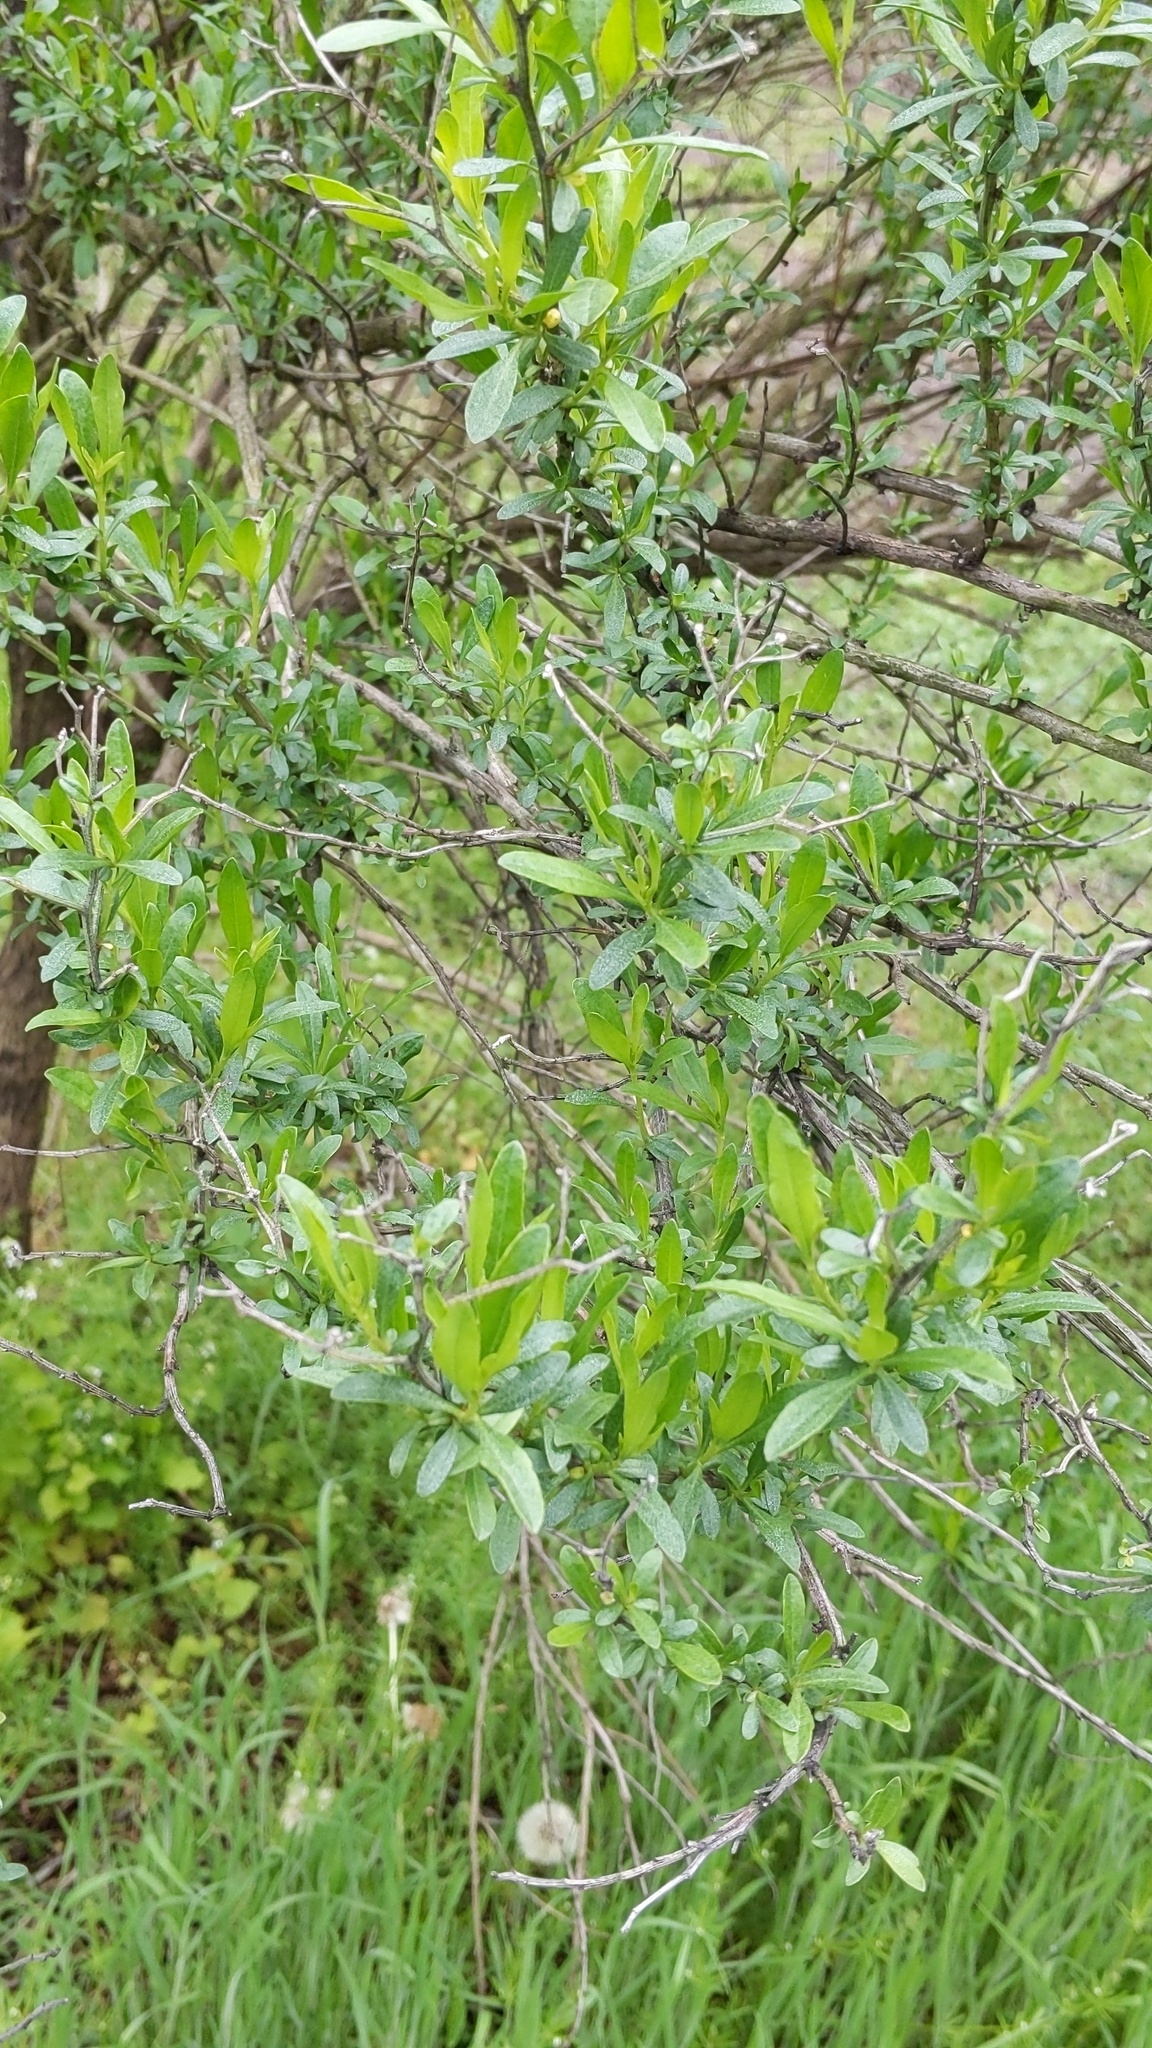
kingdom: Plantae
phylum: Tracheophyta
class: Magnoliopsida
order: Asterales
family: Asteraceae
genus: Baccharis
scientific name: Baccharis halimifolia
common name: Eastern baccharis
